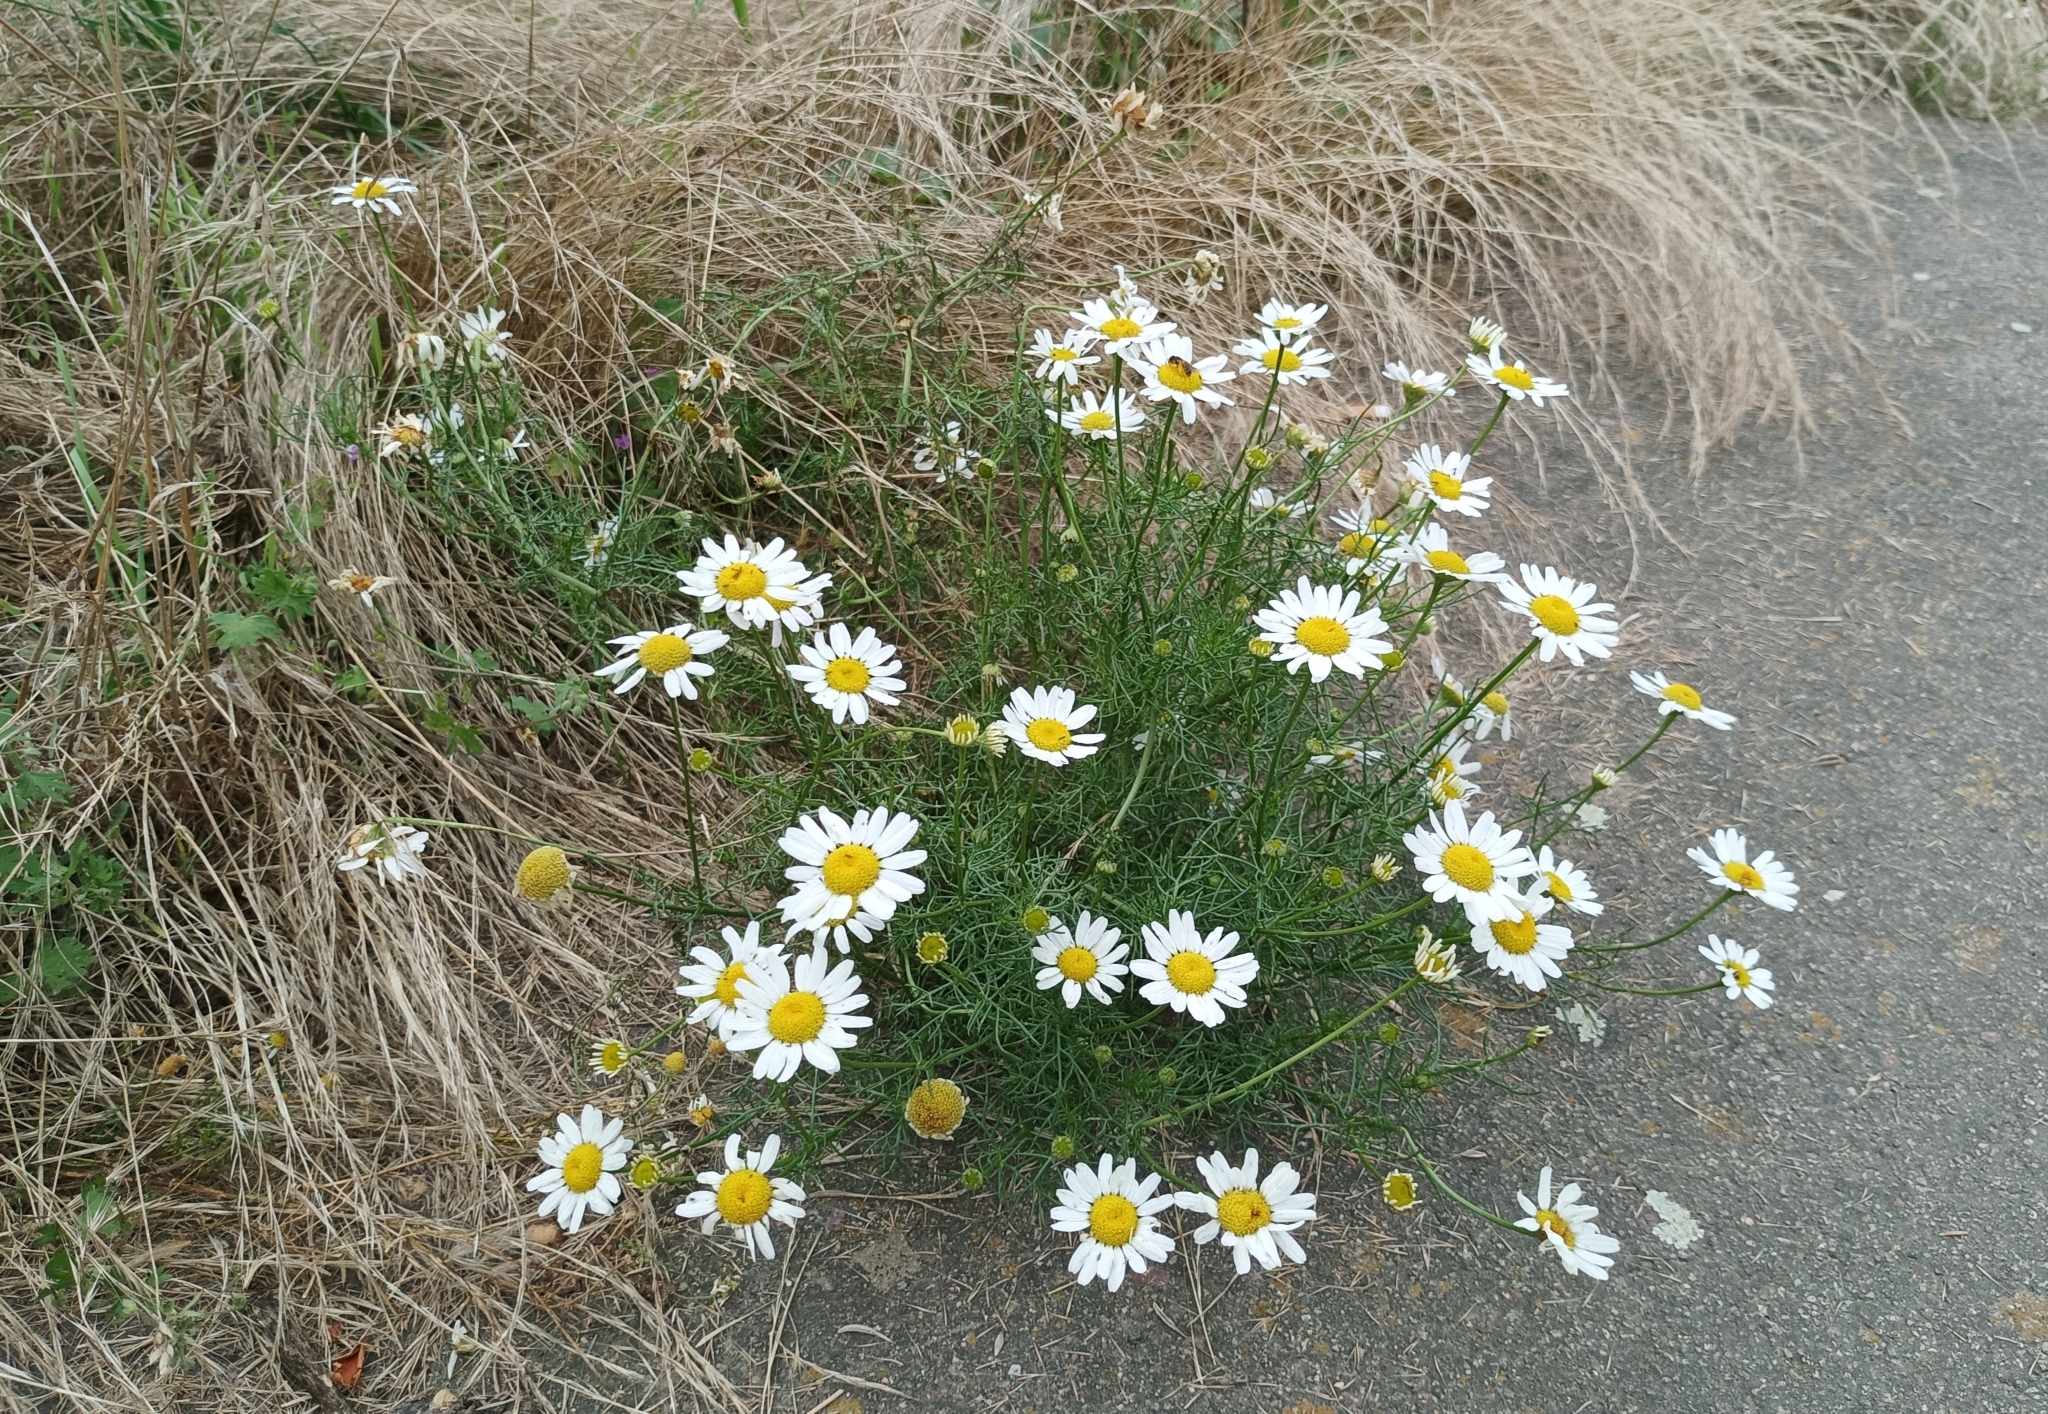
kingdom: Plantae
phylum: Tracheophyta
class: Magnoliopsida
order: Asterales
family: Asteraceae
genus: Tripleurospermum
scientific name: Tripleurospermum inodorum
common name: Scentless mayweed
